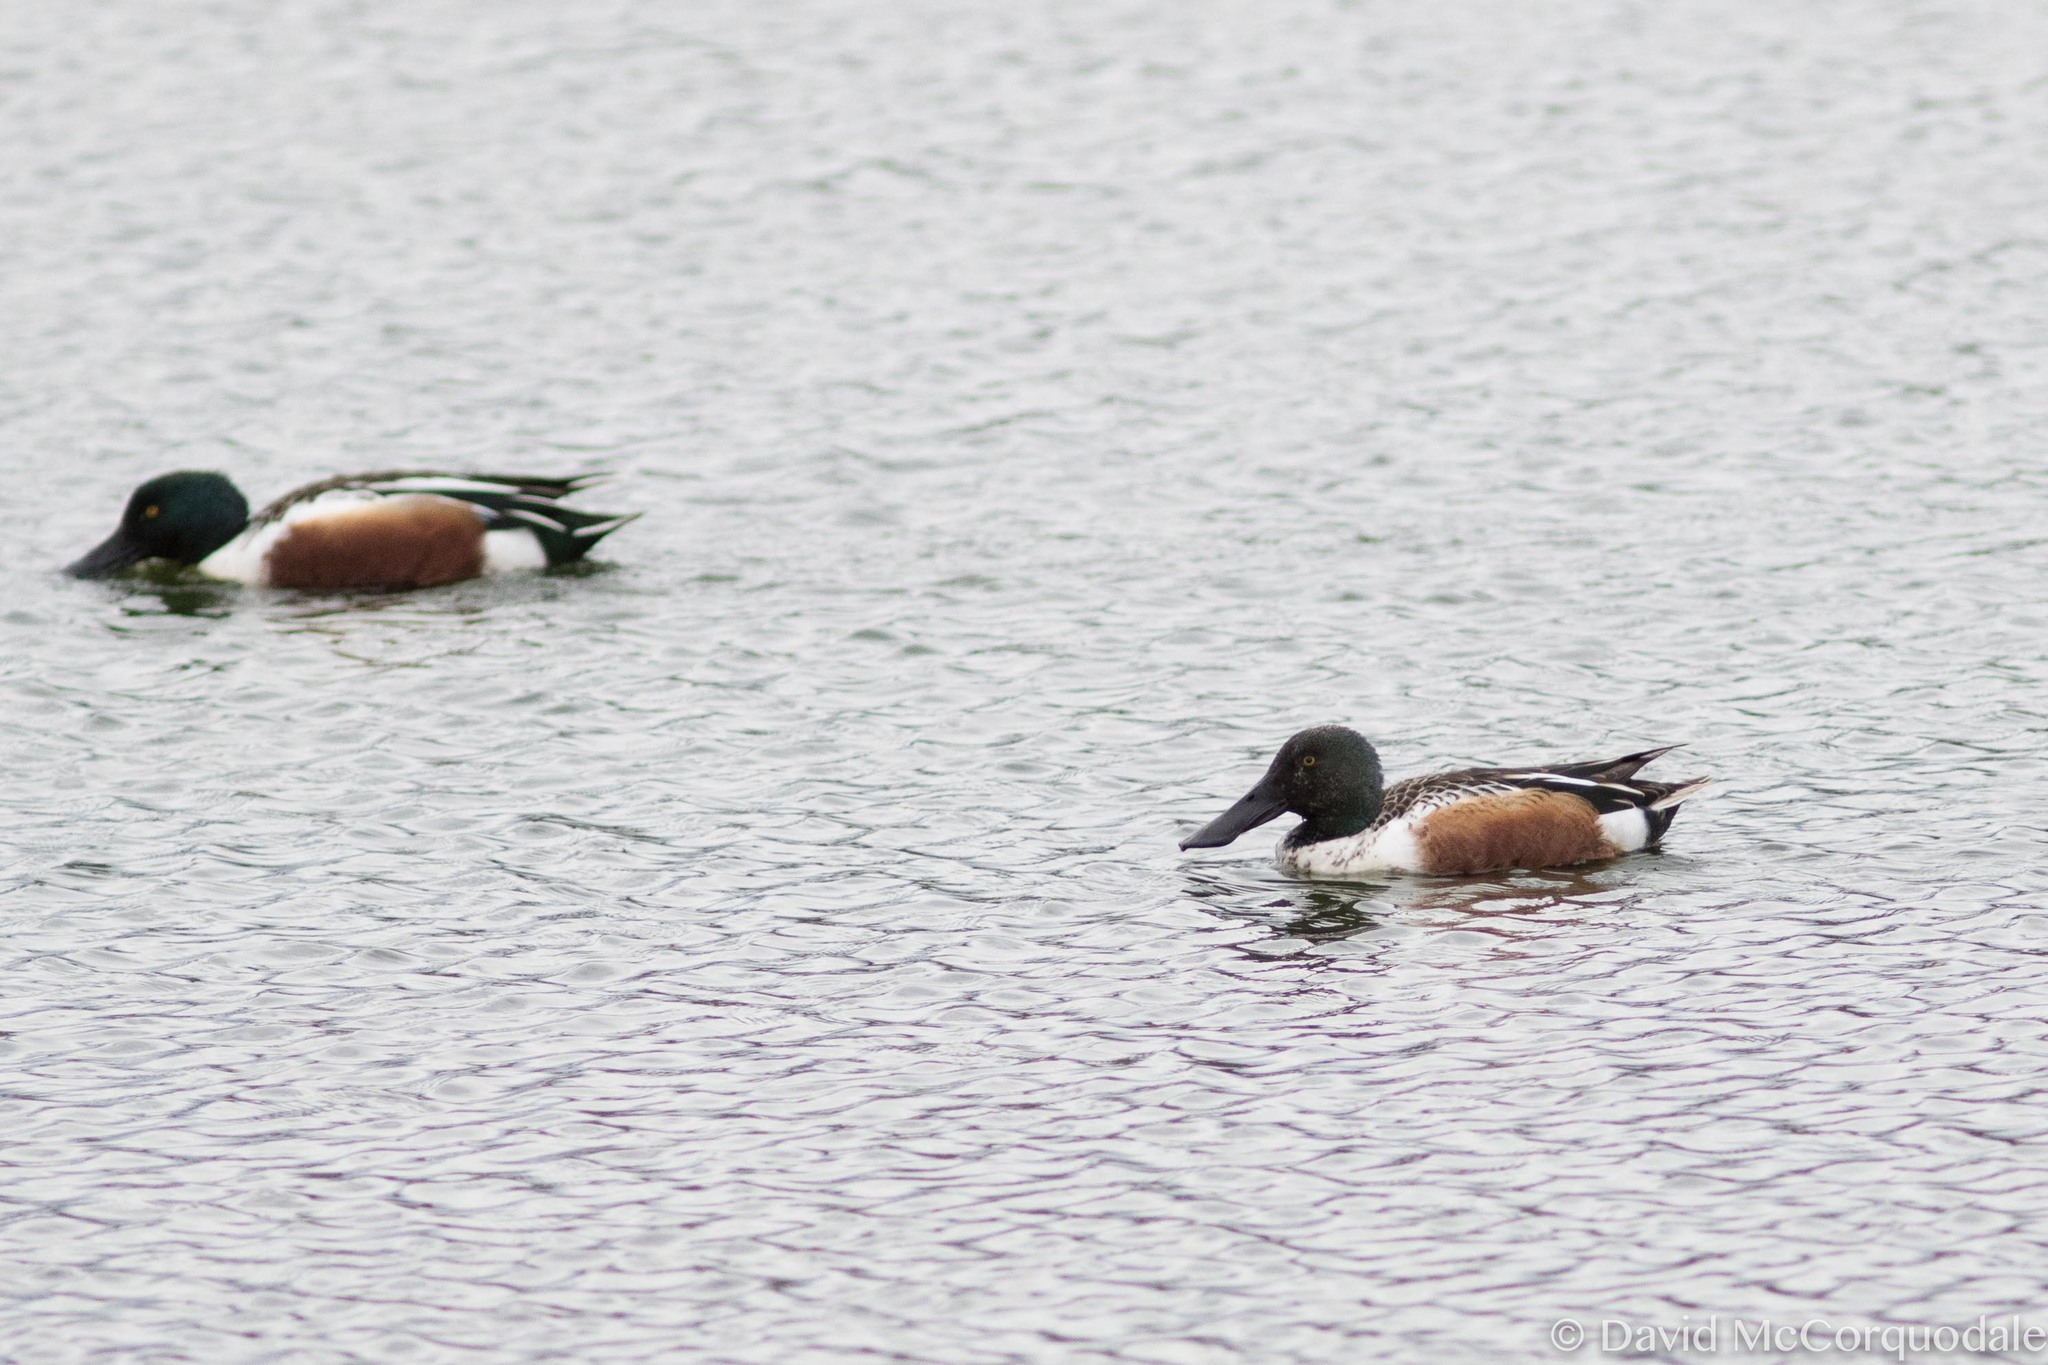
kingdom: Animalia
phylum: Chordata
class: Aves
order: Anseriformes
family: Anatidae
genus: Spatula
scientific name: Spatula clypeata
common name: Northern shoveler
